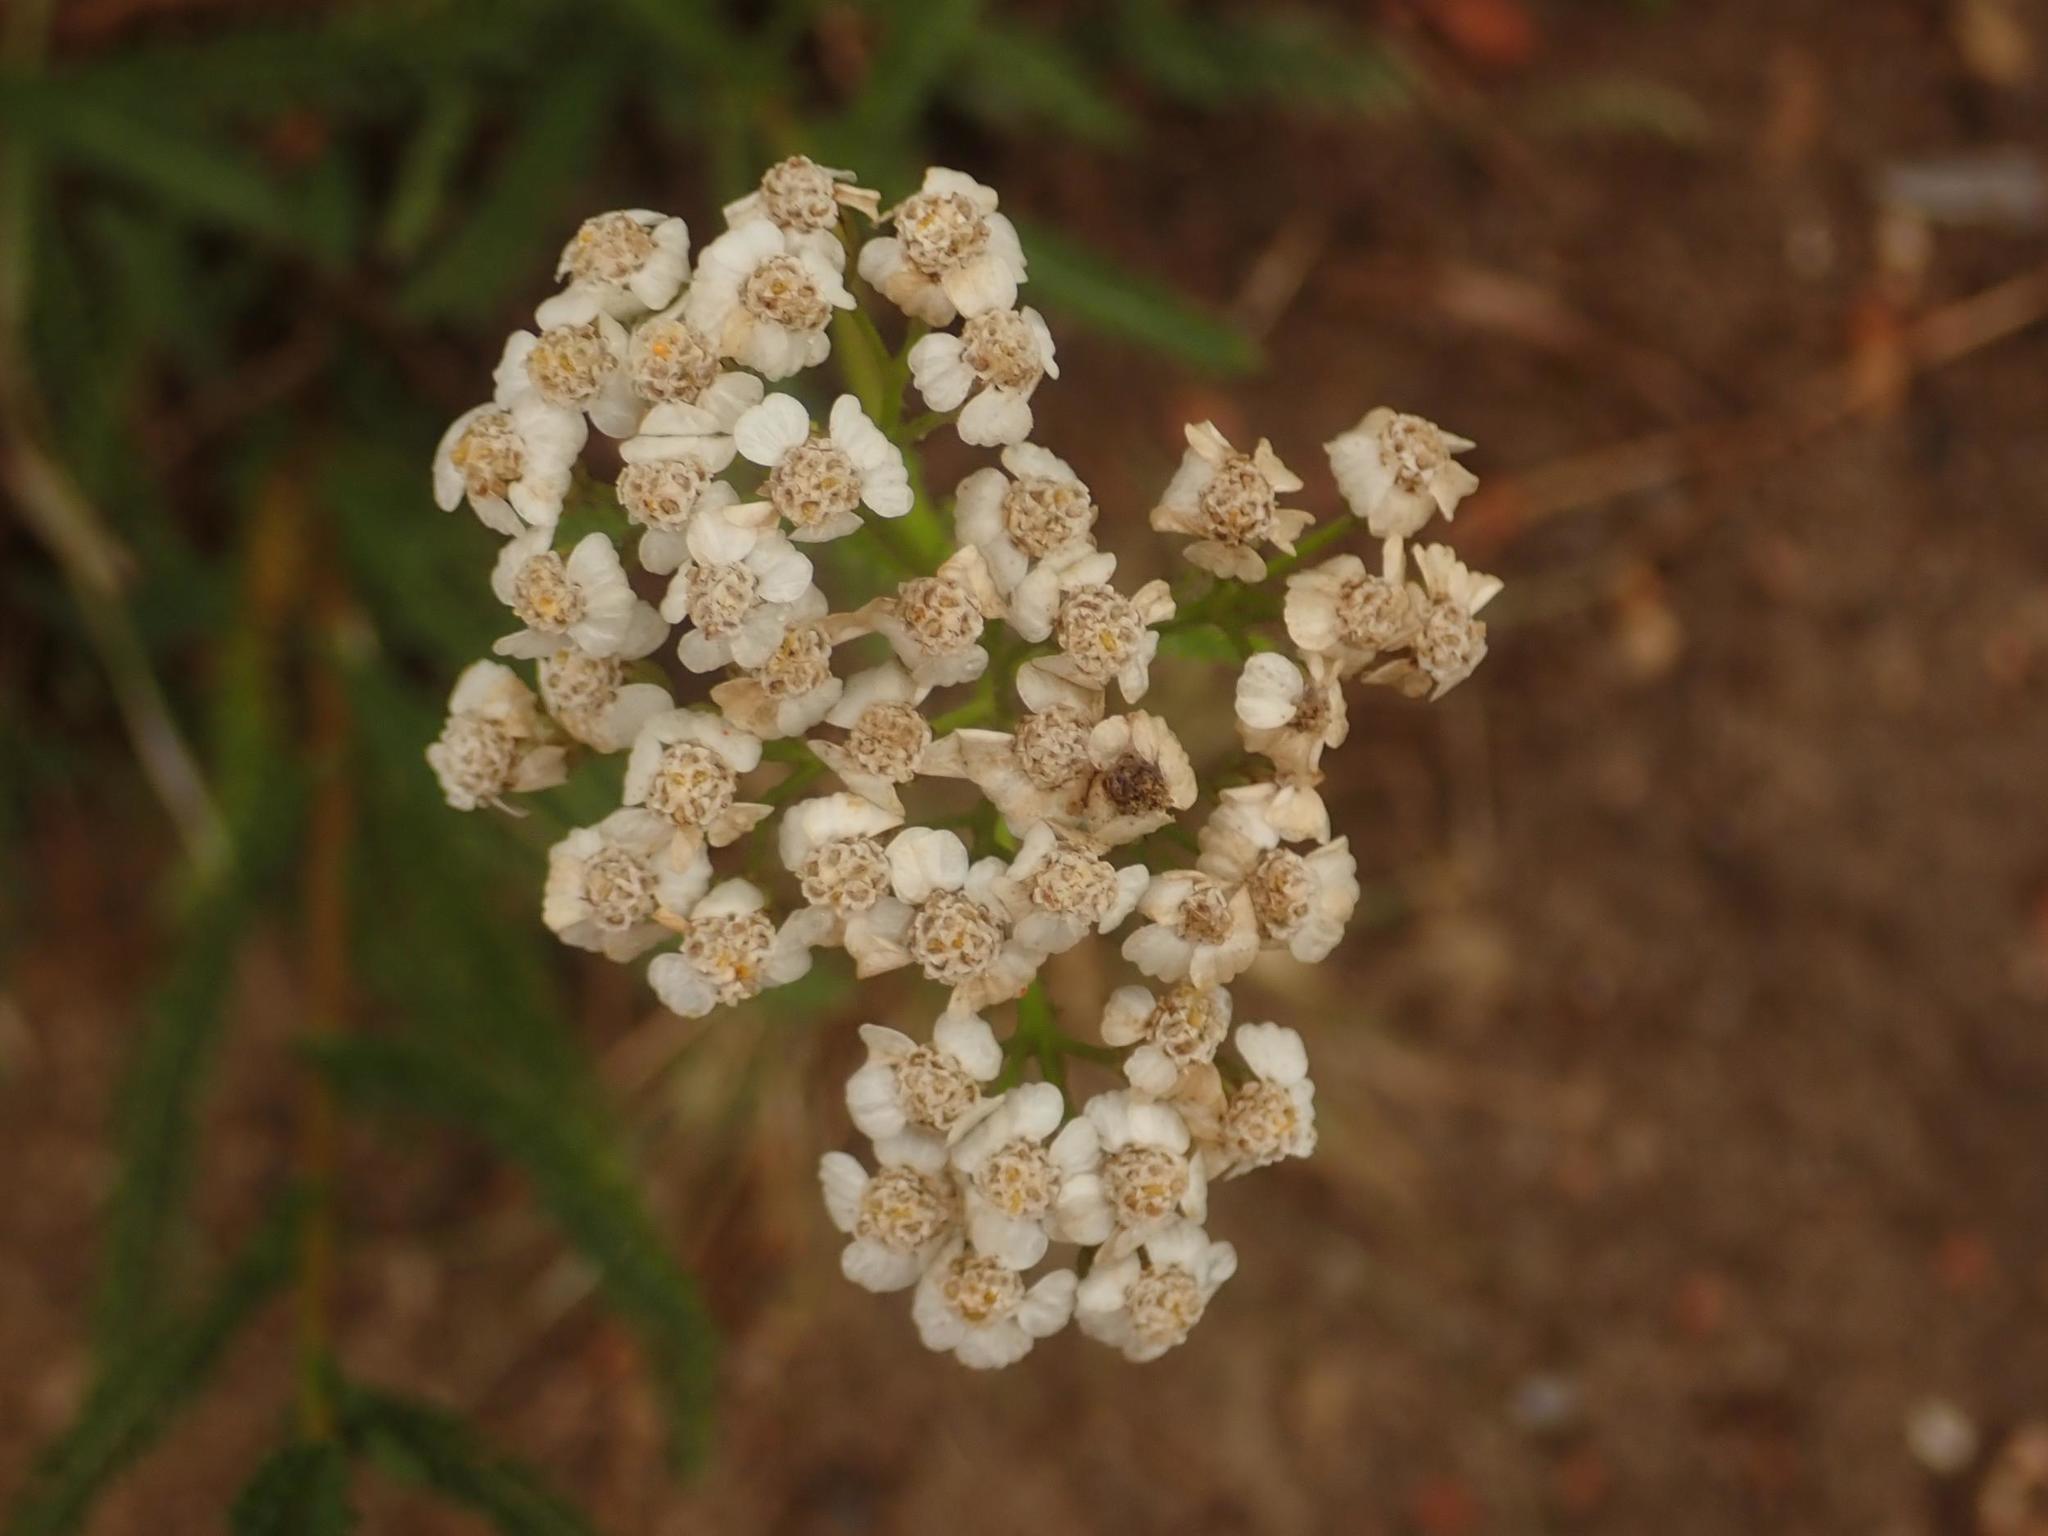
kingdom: Plantae
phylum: Tracheophyta
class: Magnoliopsida
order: Asterales
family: Asteraceae
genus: Achillea
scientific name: Achillea millefolium
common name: Yarrow
